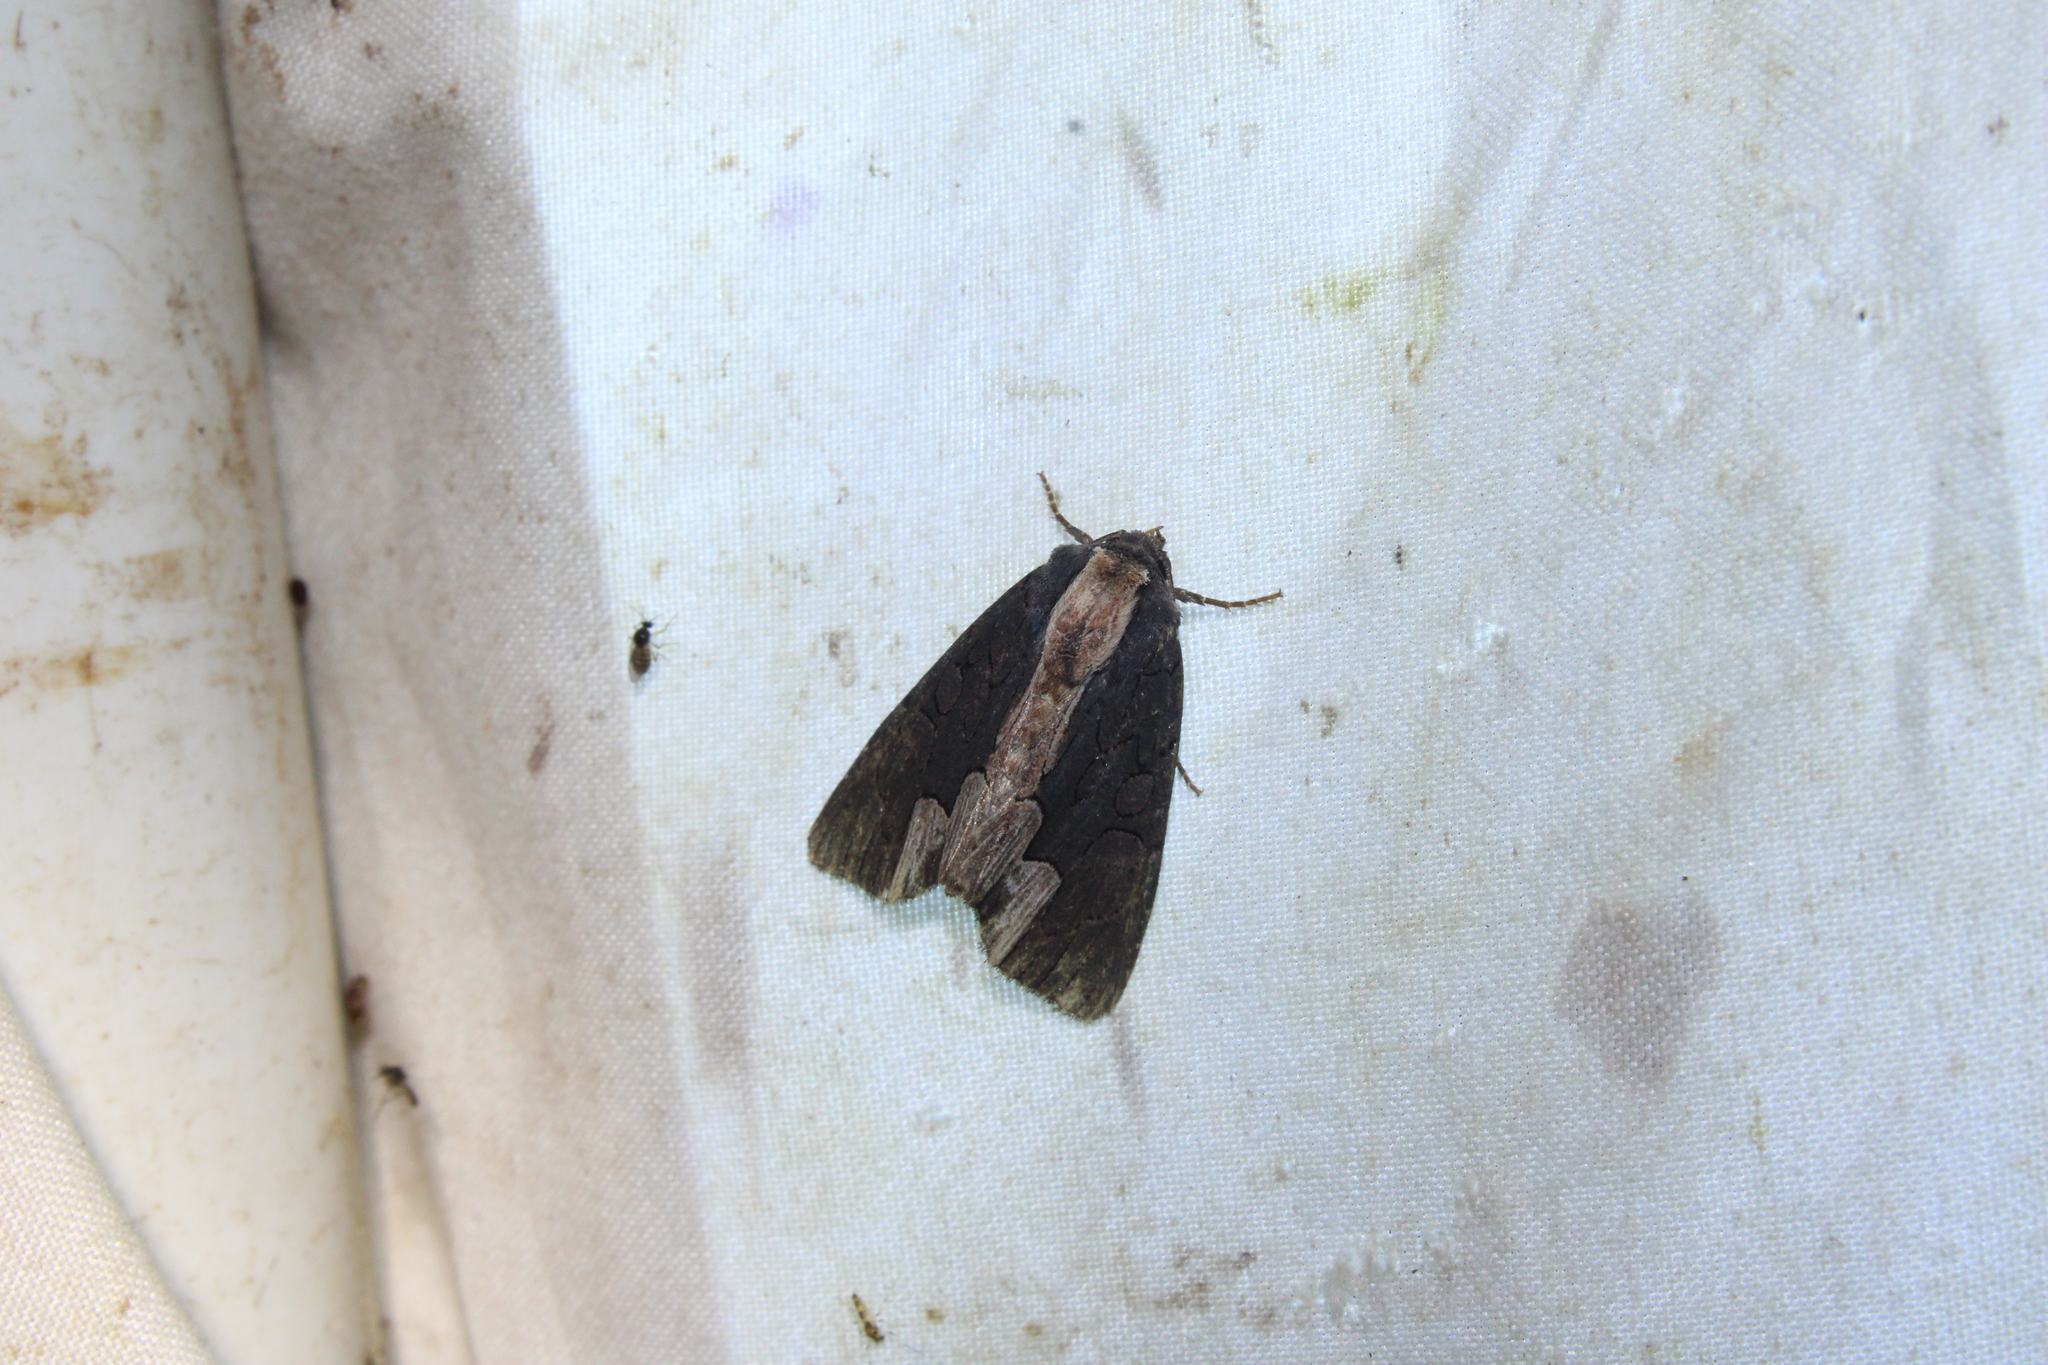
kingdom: Animalia
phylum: Arthropoda
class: Insecta
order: Lepidoptera
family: Noctuidae
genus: Dypterygia
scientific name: Dypterygia rozmani
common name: American bird's-wing
